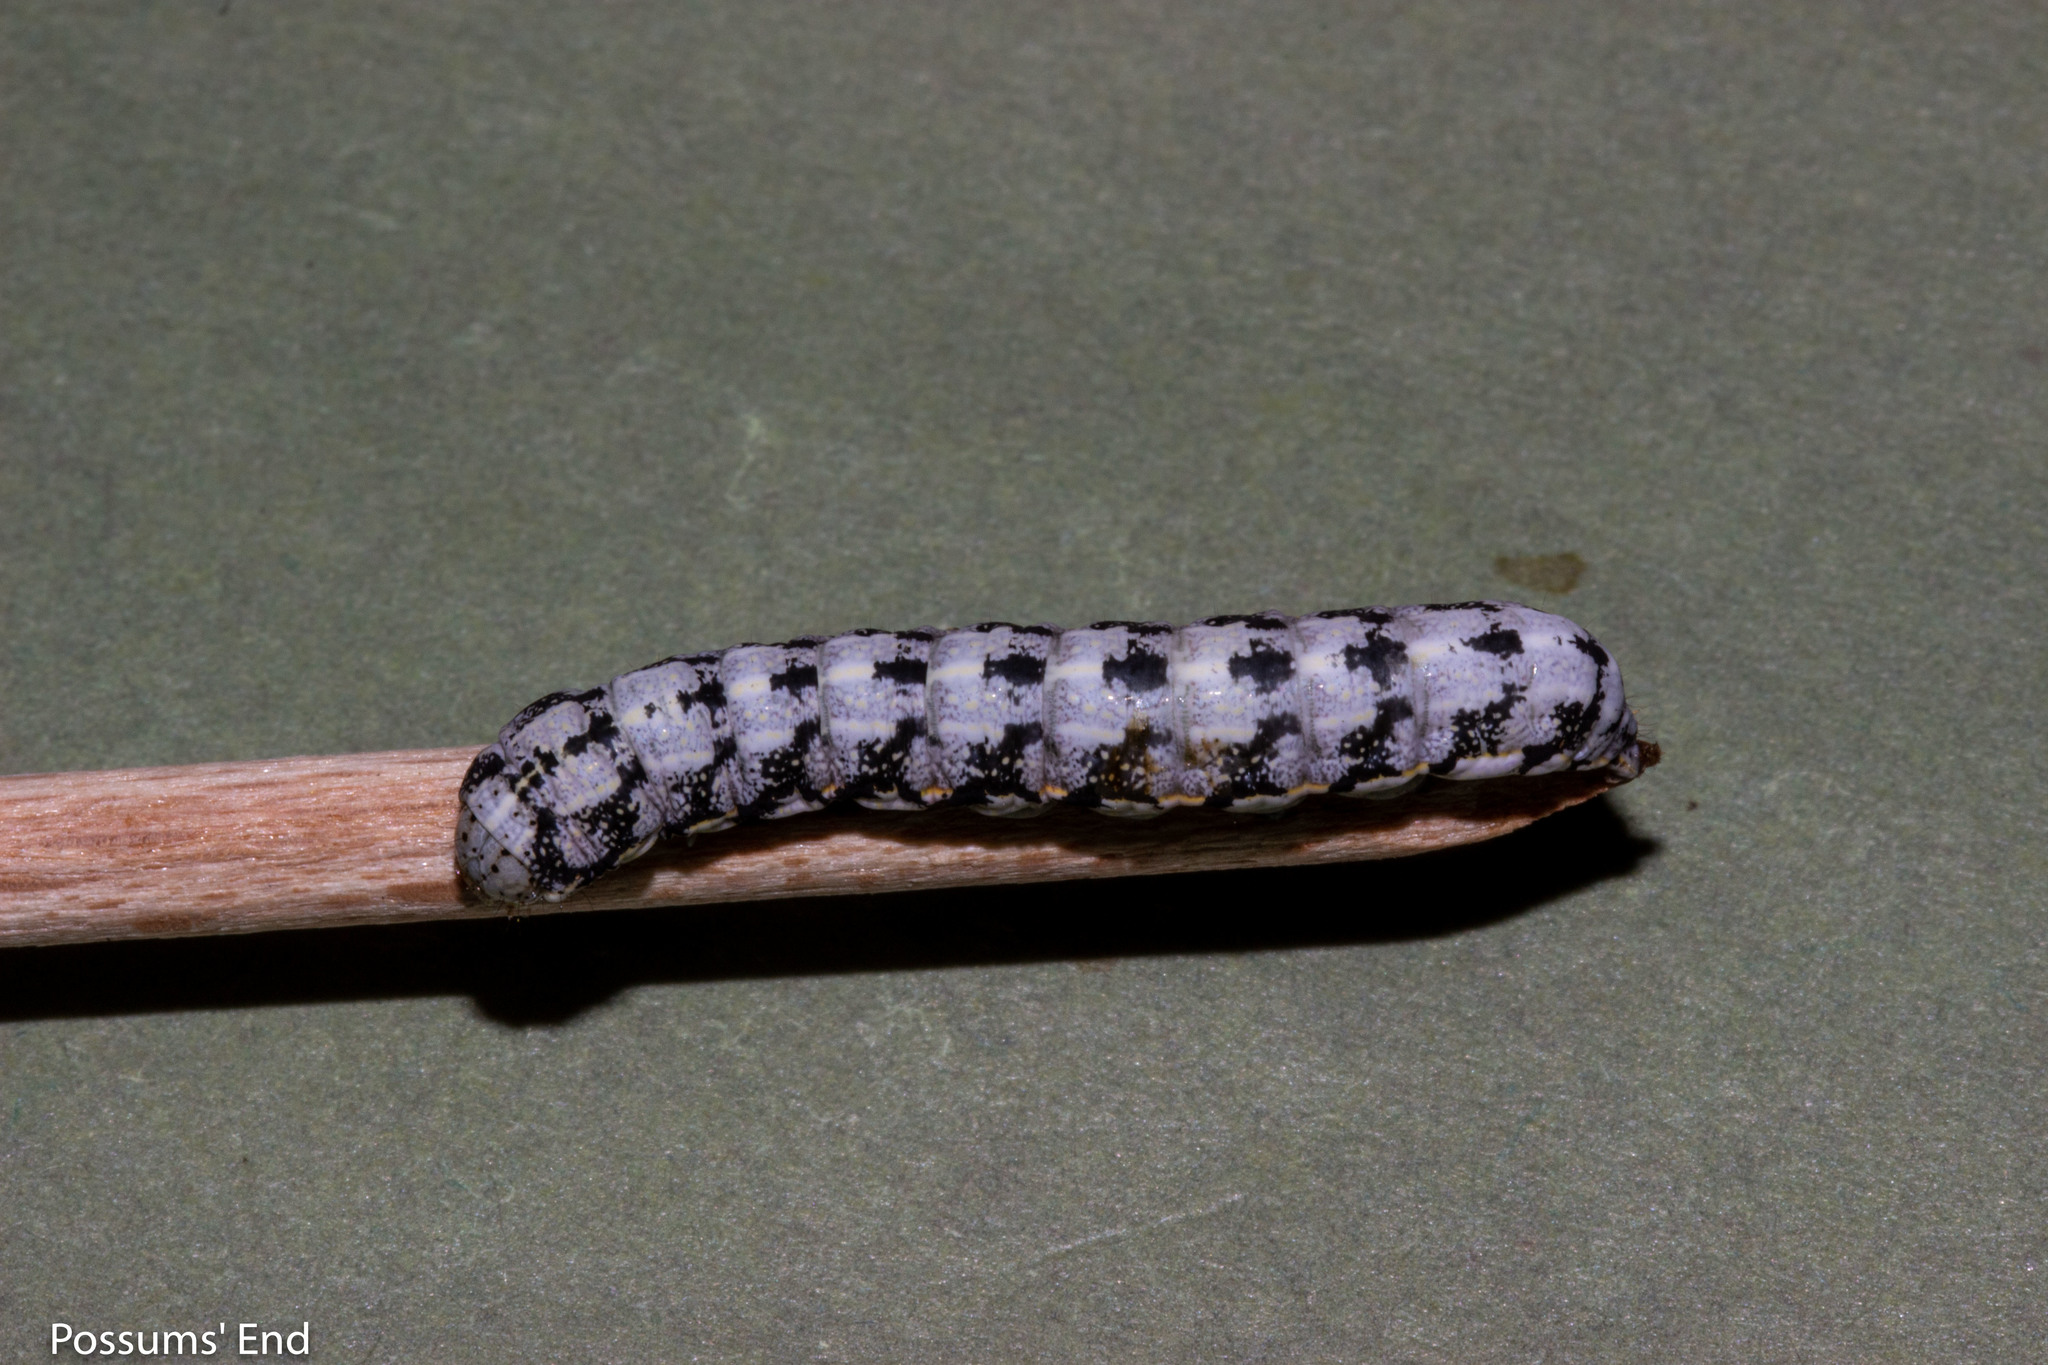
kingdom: Animalia
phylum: Arthropoda
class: Insecta
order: Lepidoptera
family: Noctuidae
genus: Meterana
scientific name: Meterana decorata
